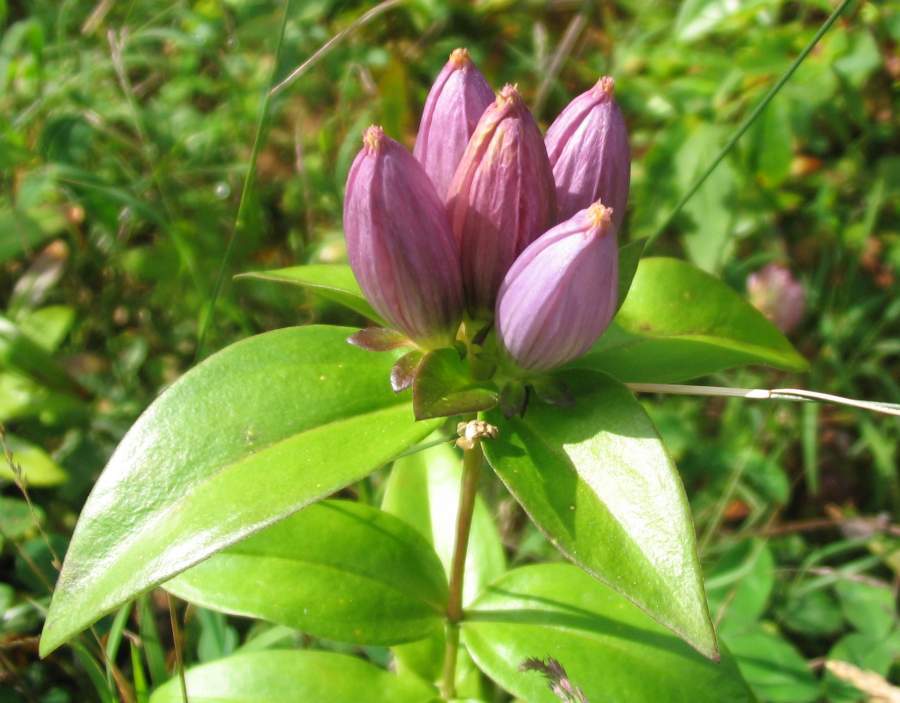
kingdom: Plantae
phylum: Tracheophyta
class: Magnoliopsida
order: Gentianales
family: Gentianaceae
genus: Gentiana
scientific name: Gentiana andrewsii
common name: Bottle gentian
